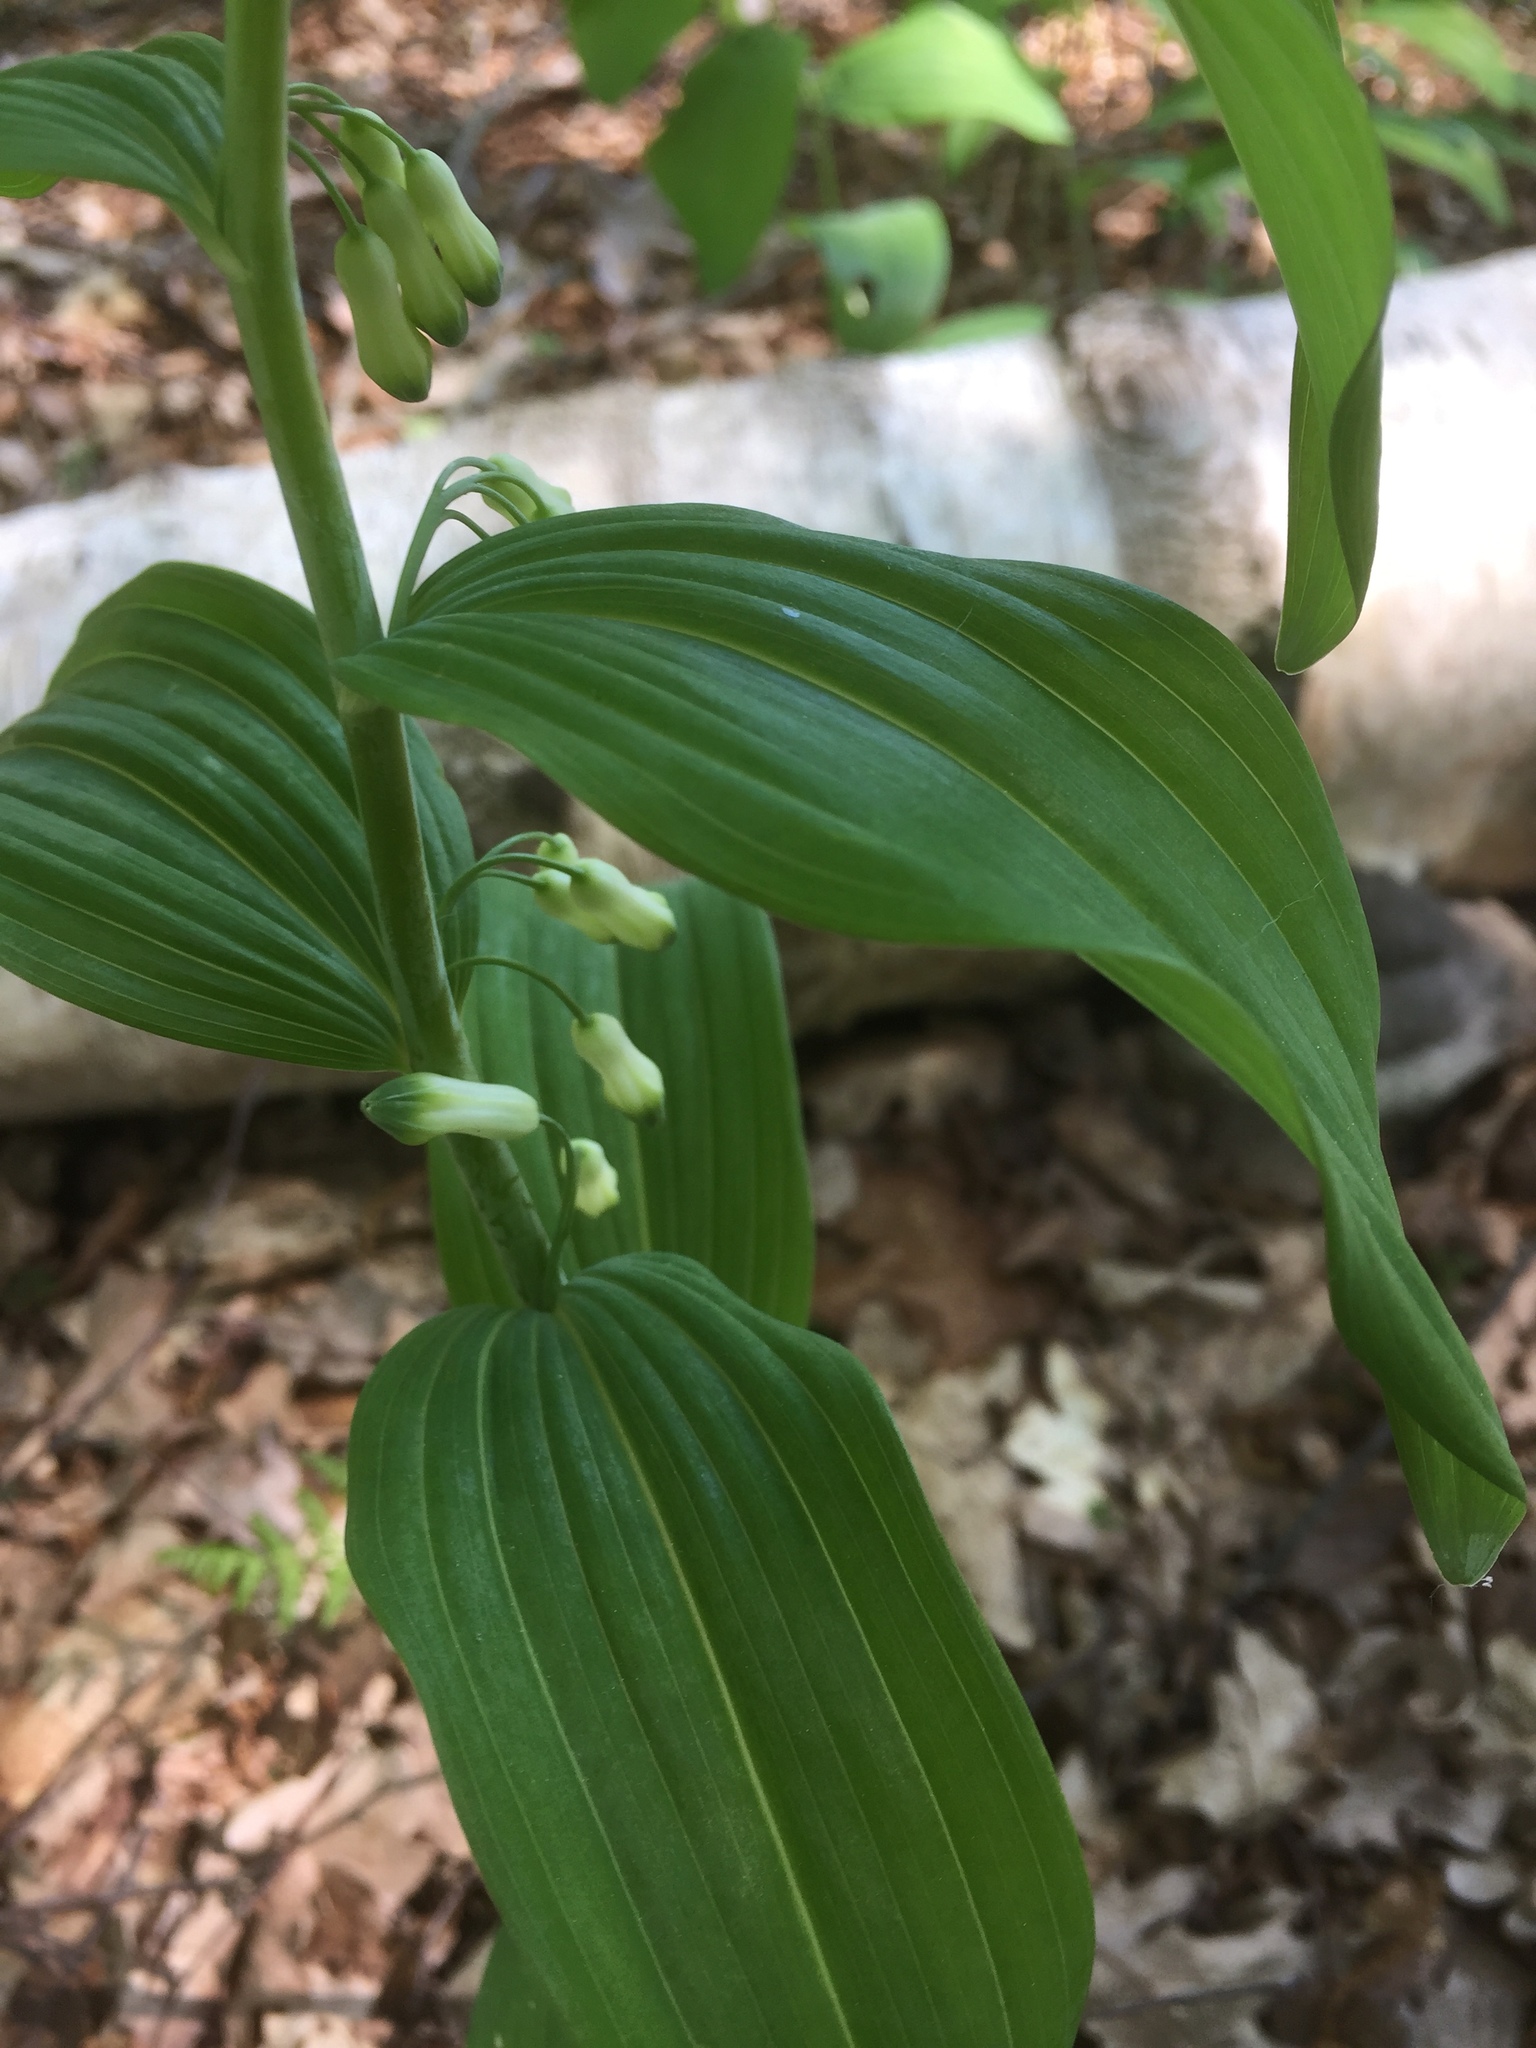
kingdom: Plantae
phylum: Tracheophyta
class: Liliopsida
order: Asparagales
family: Asparagaceae
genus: Polygonatum
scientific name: Polygonatum multiflorum
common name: Solomon's-seal
